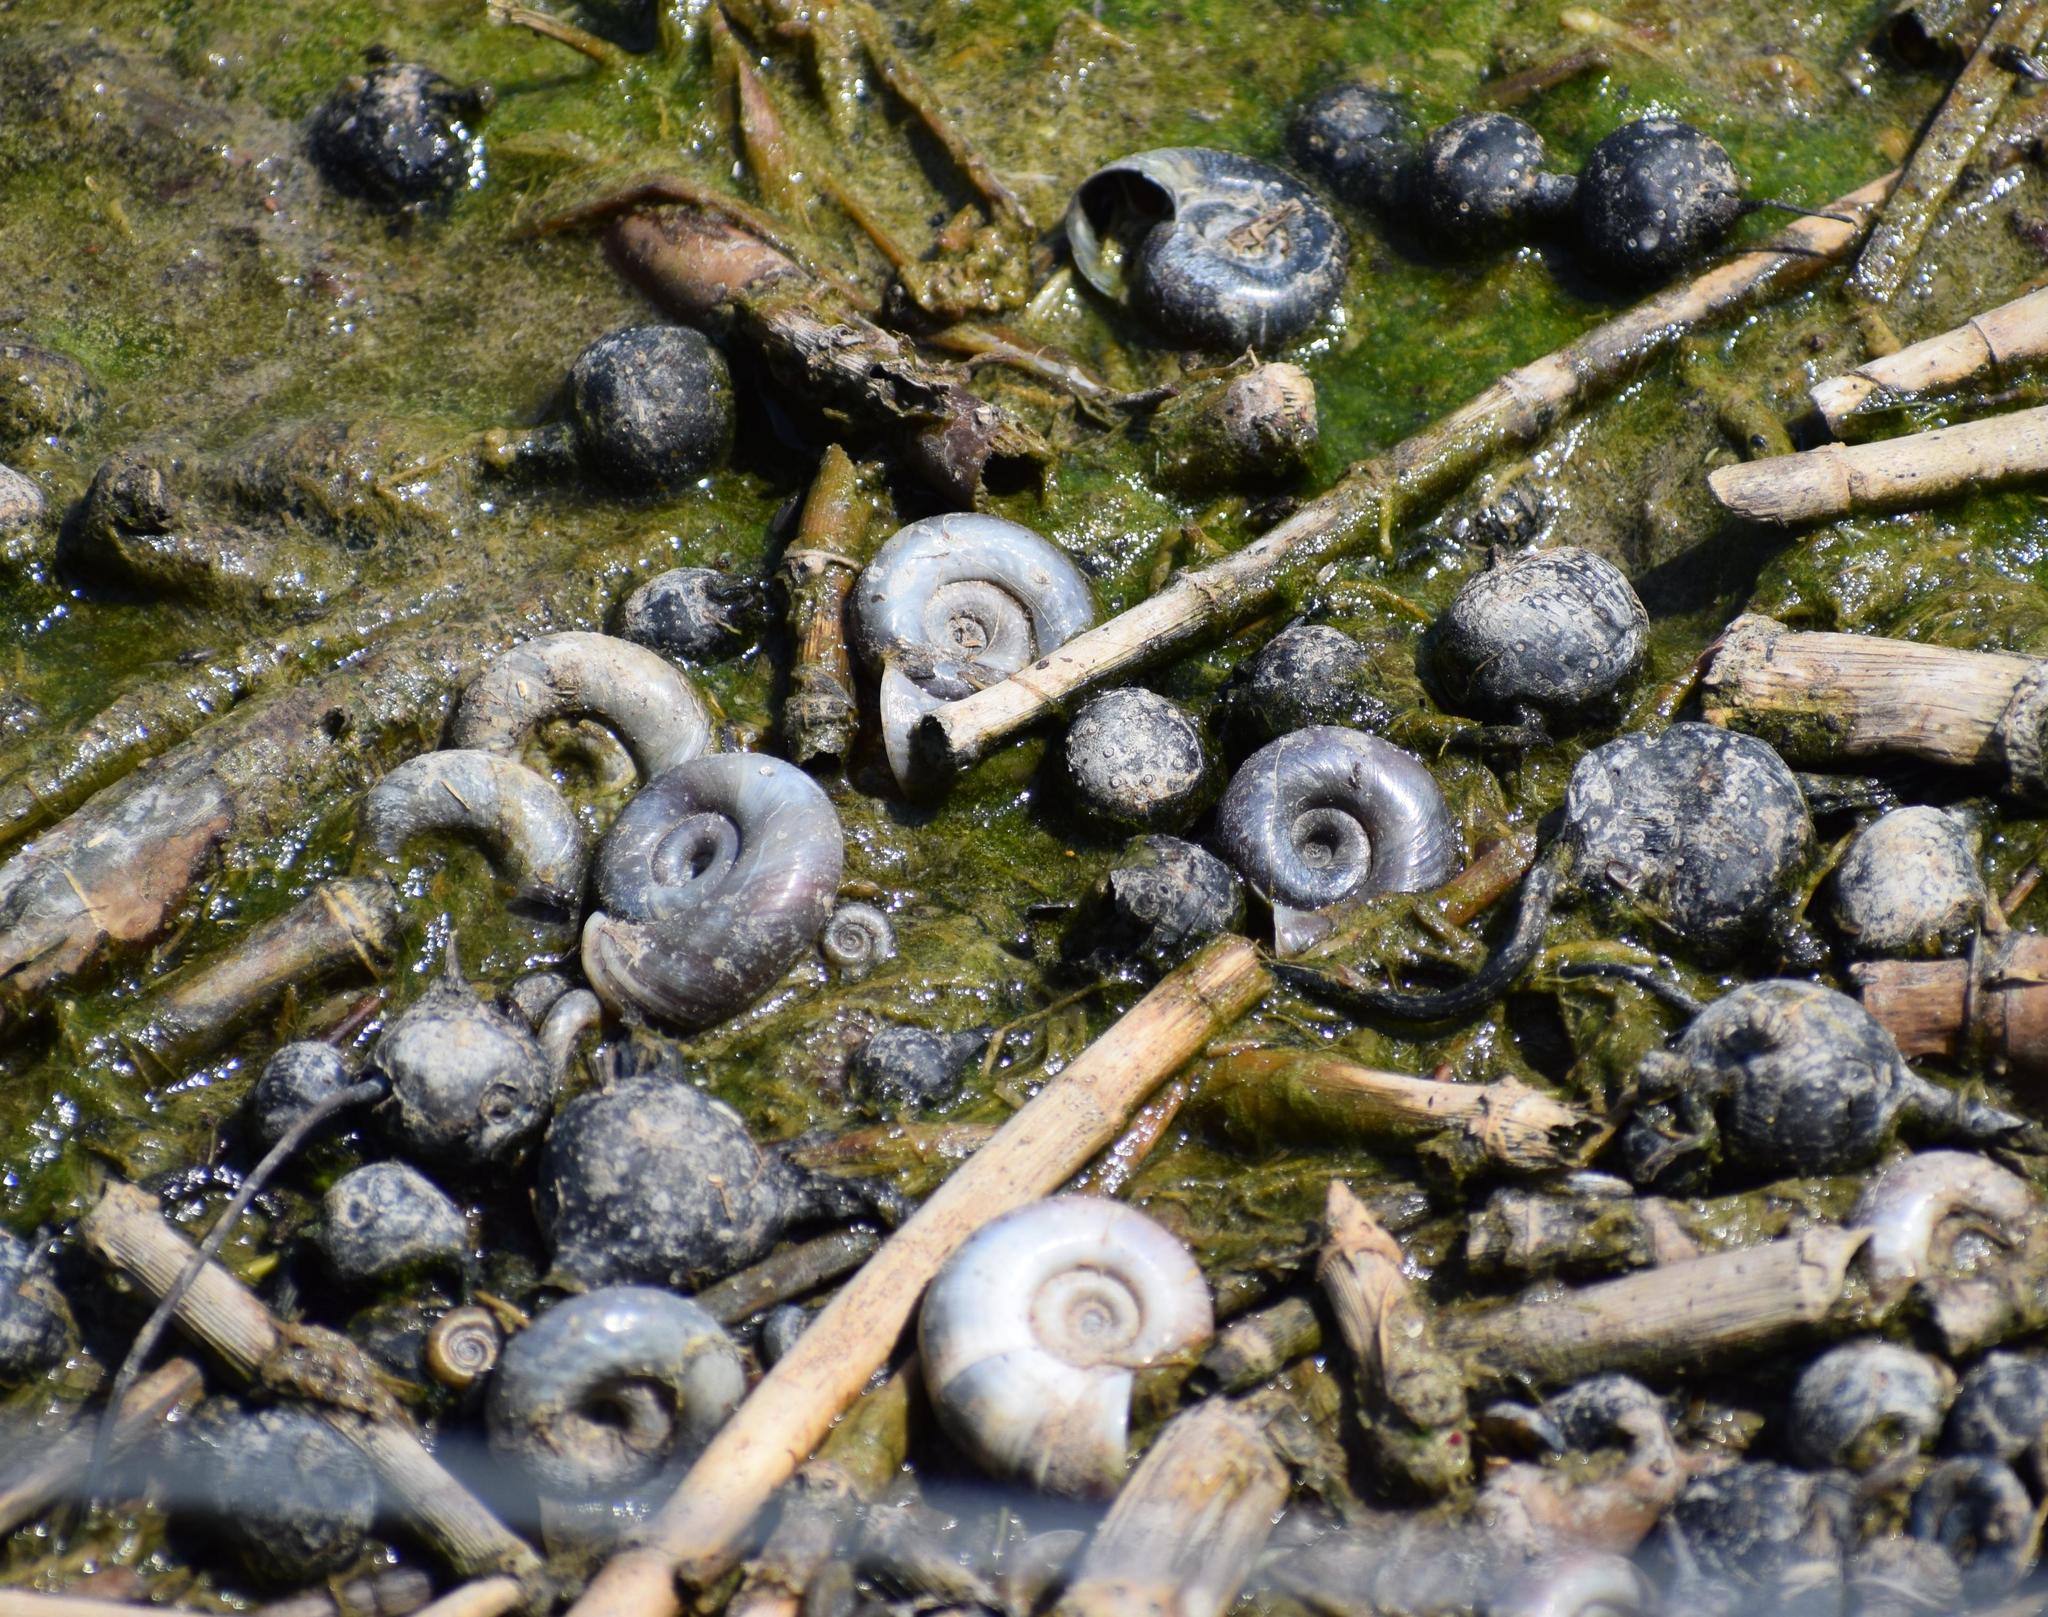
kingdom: Animalia
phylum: Mollusca
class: Gastropoda
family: Planorbidae
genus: Planorbarius
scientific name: Planorbarius corneus
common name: Great ramshorn
